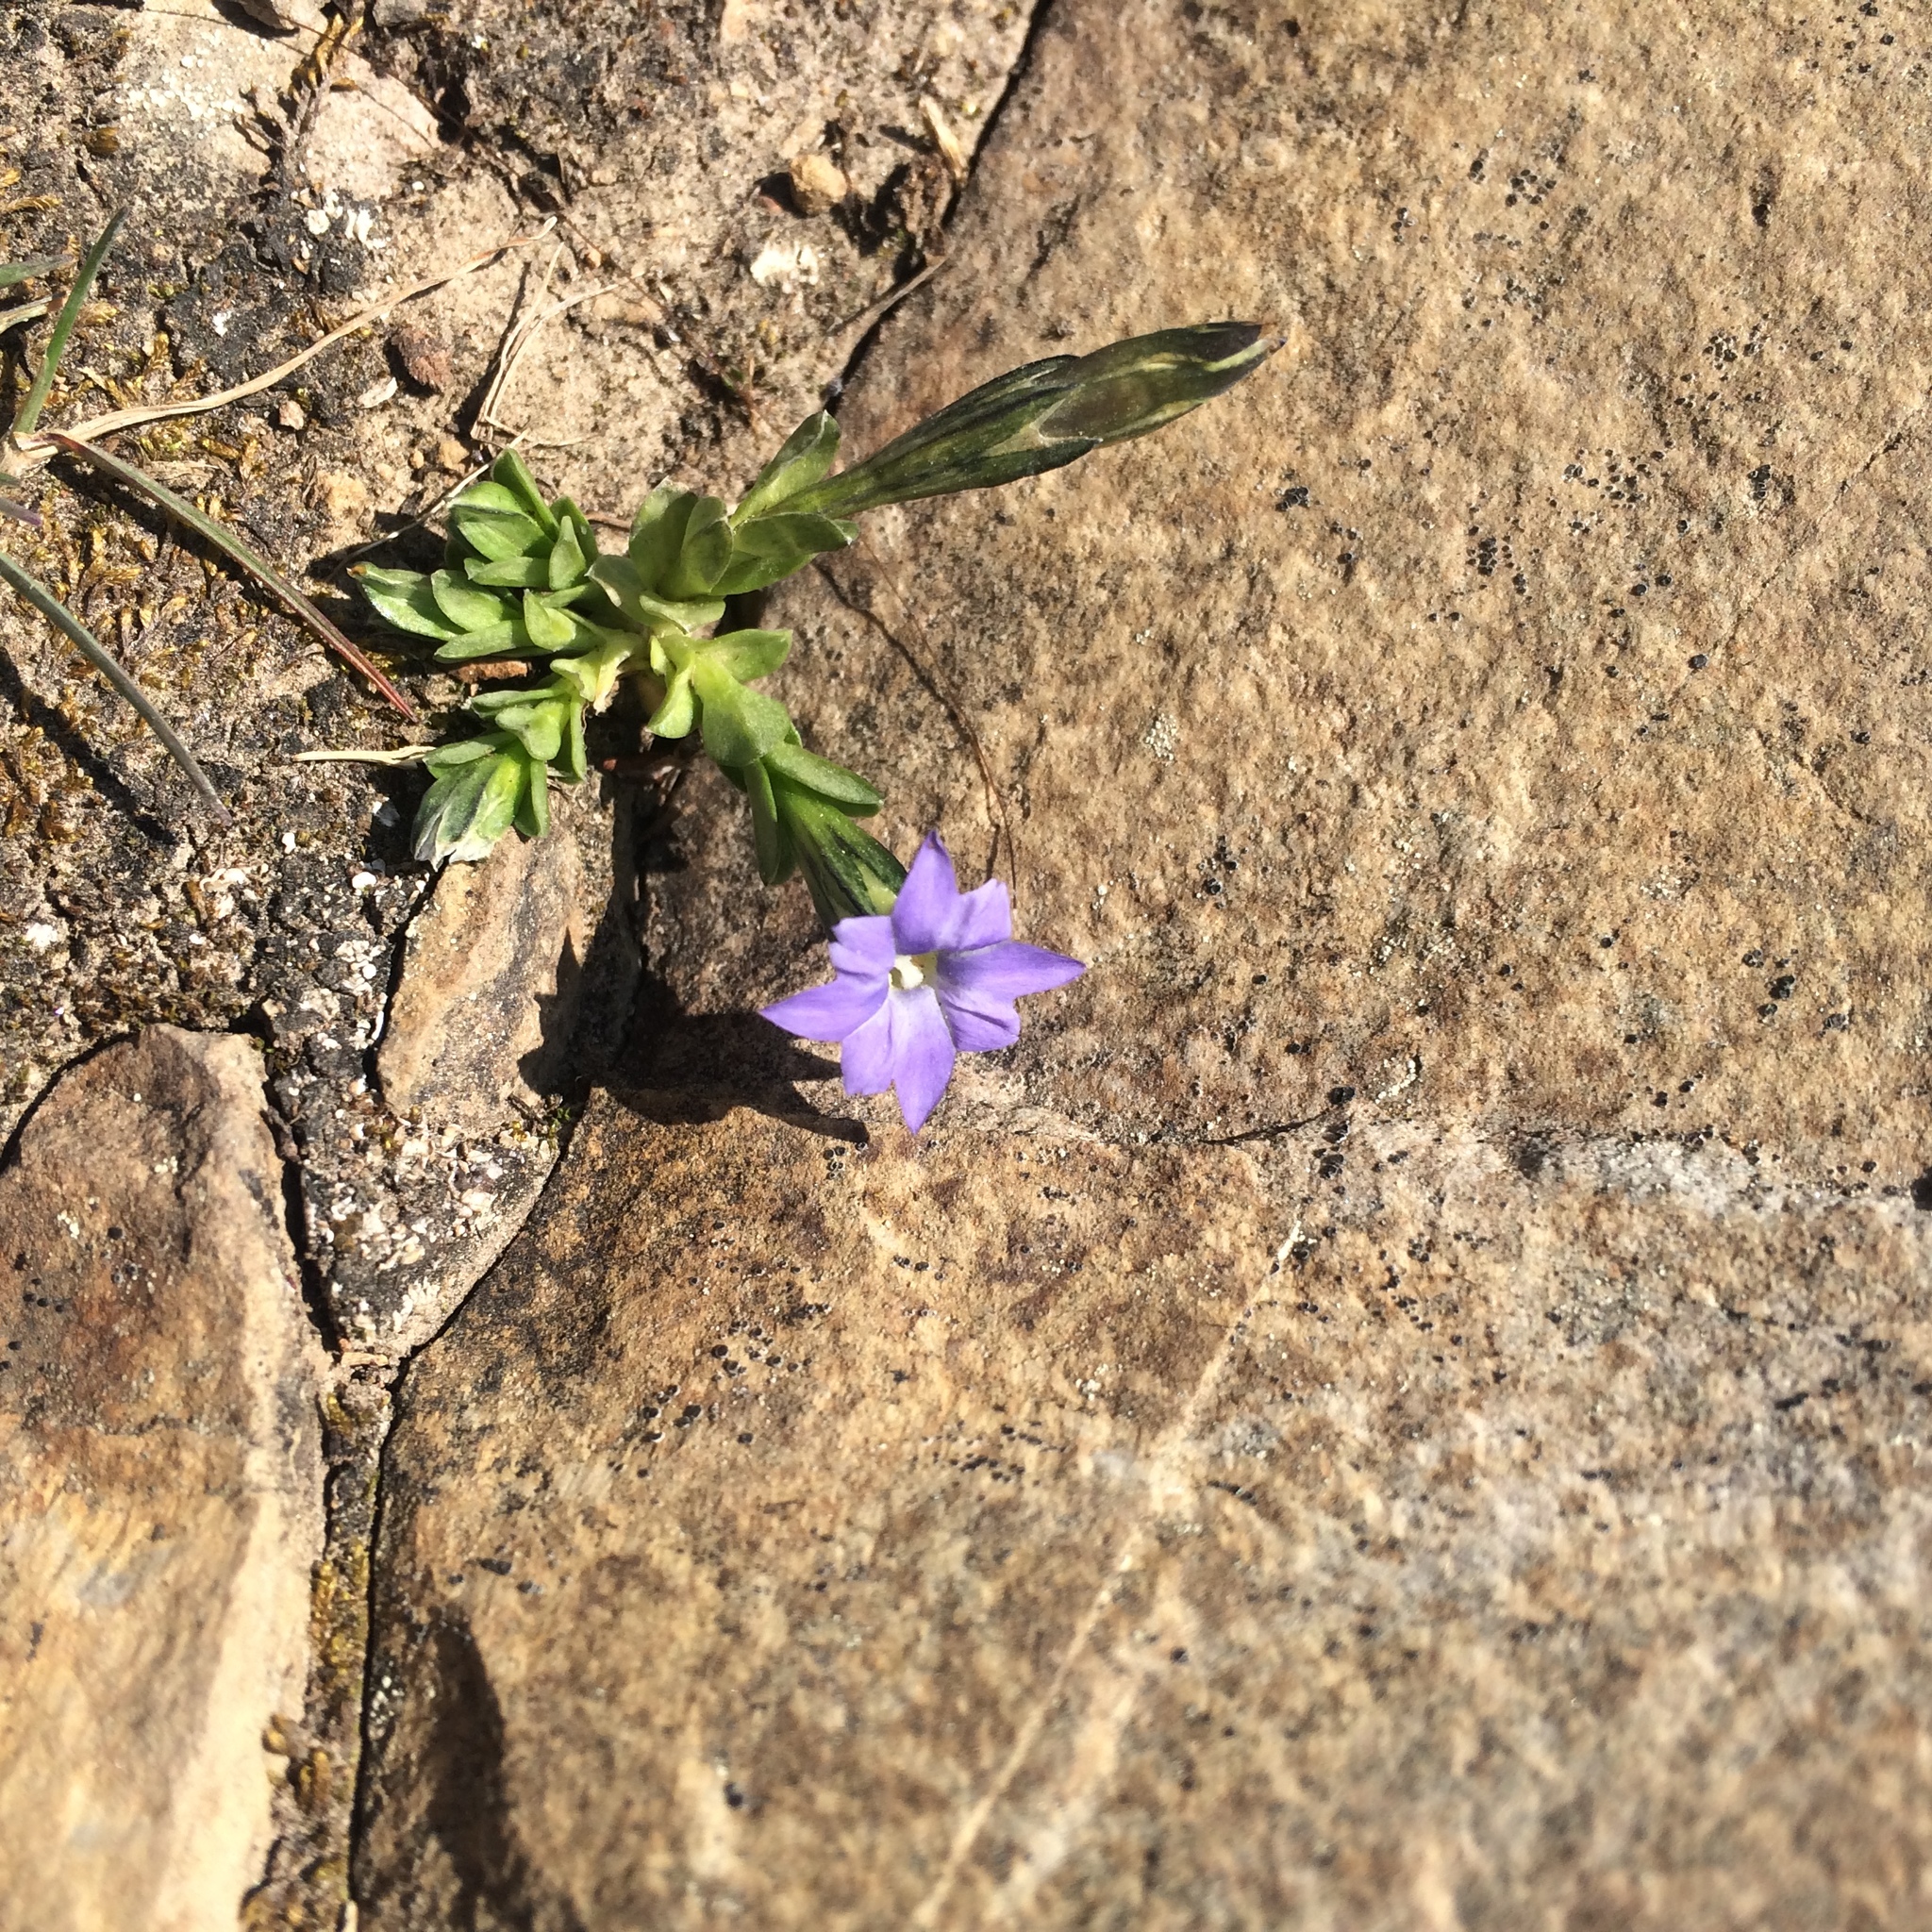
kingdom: Plantae
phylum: Tracheophyta
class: Magnoliopsida
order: Gentianales
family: Gentianaceae
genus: Gentiana
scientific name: Gentiana prostrata
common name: Moss gentian
